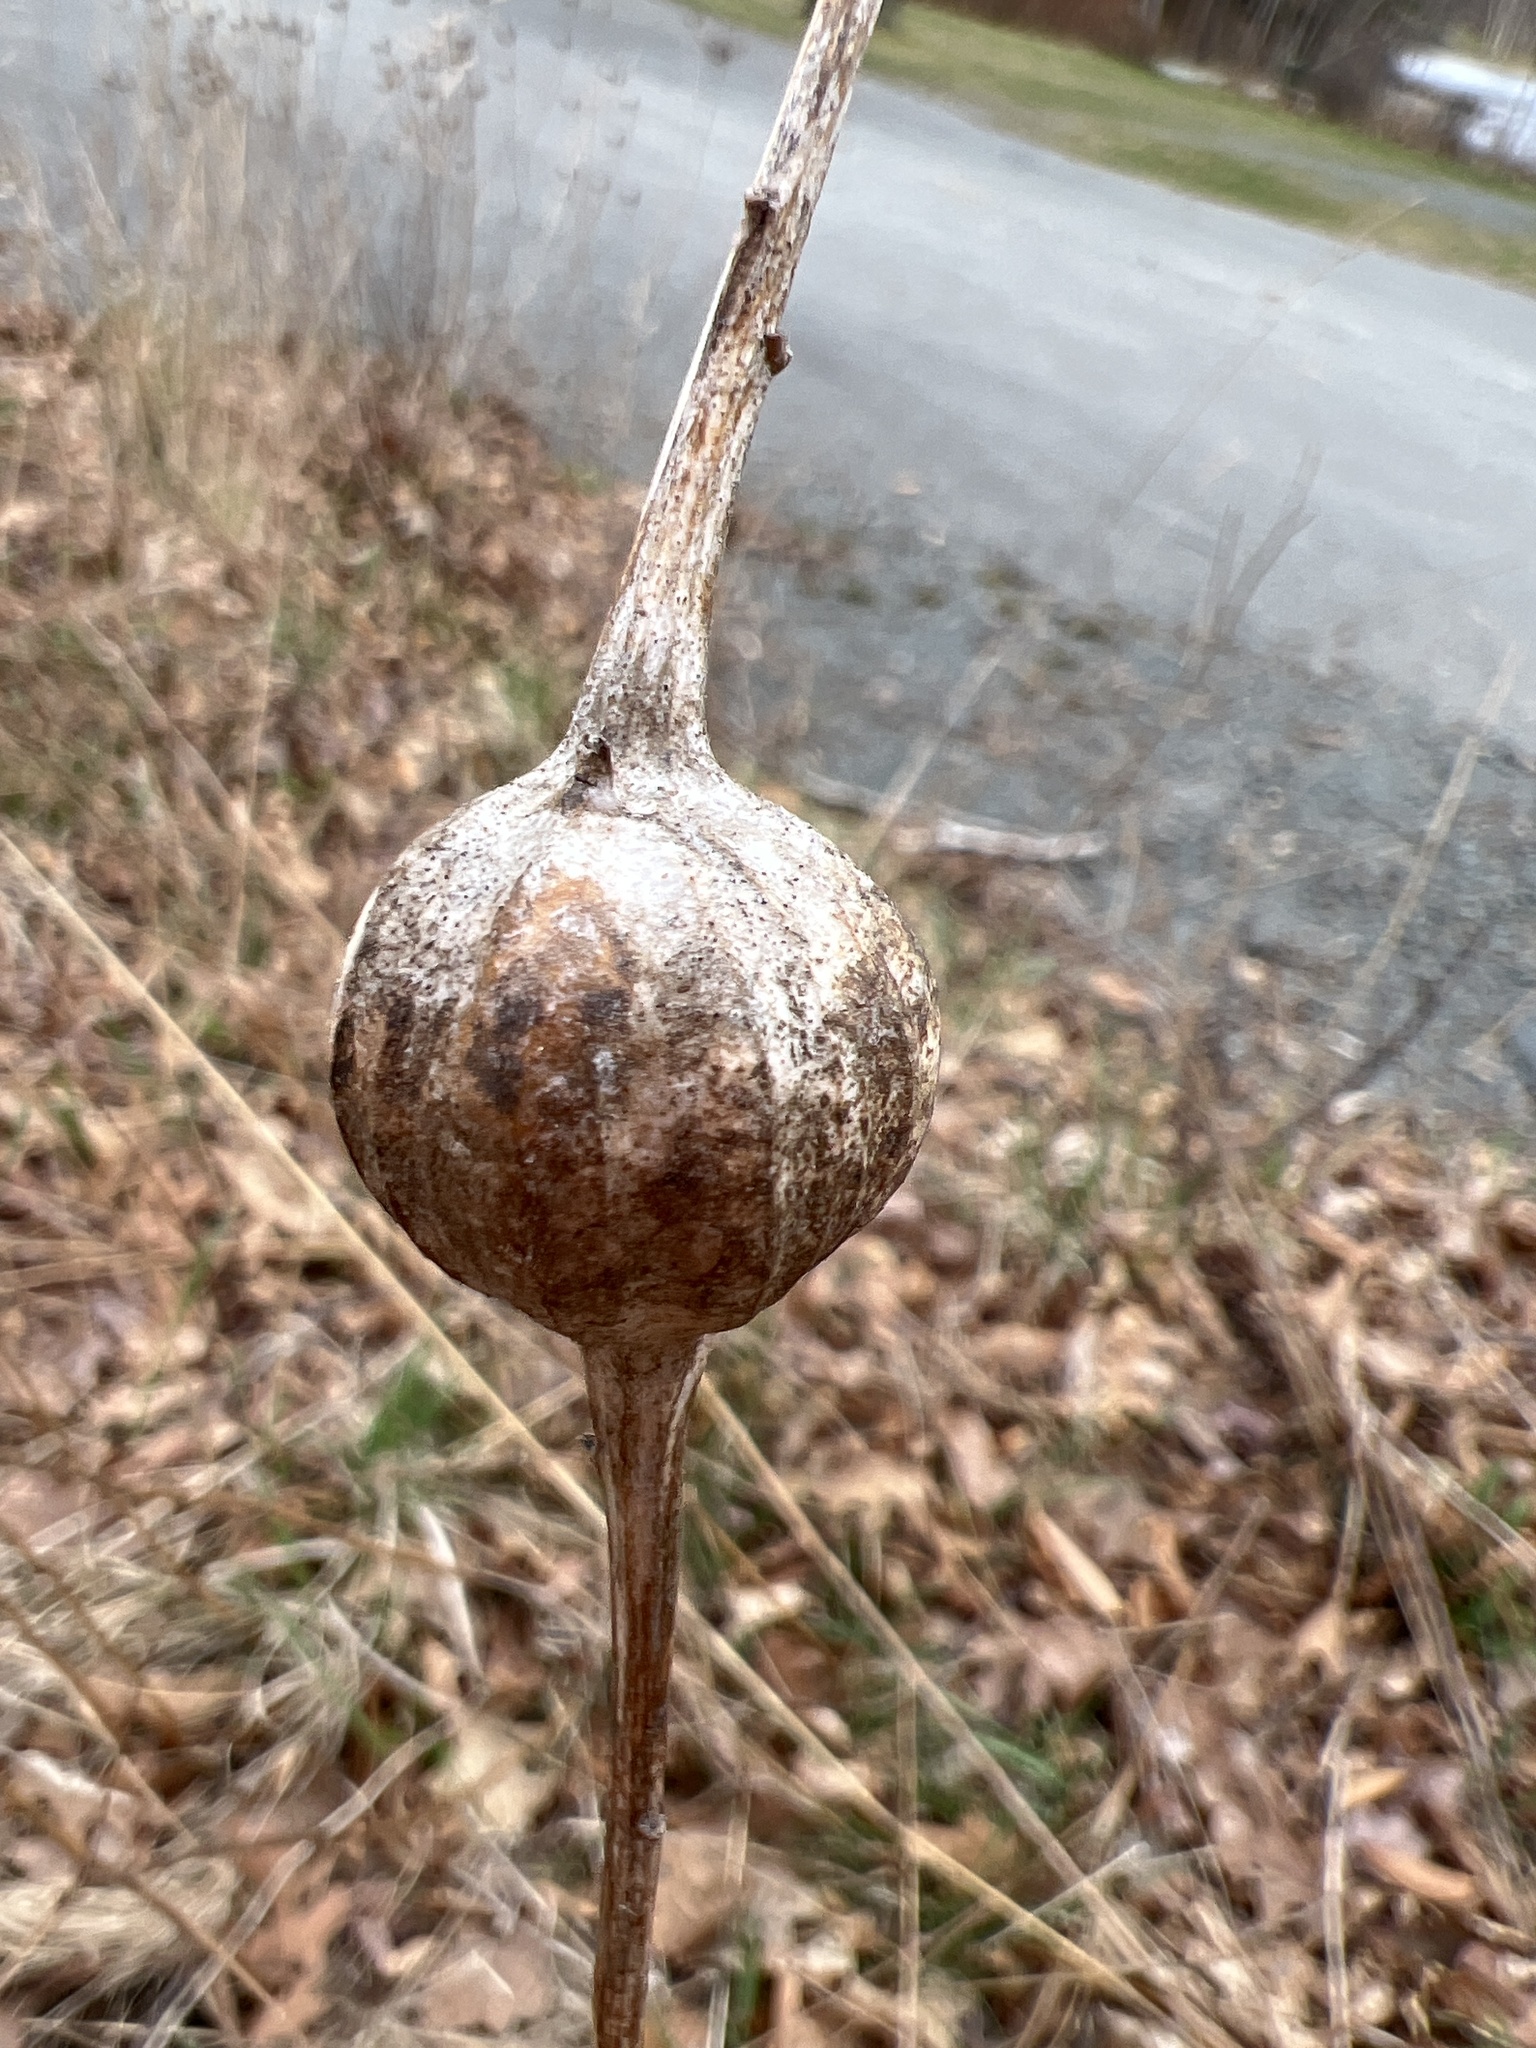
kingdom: Animalia
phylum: Arthropoda
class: Insecta
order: Diptera
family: Tephritidae
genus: Eurosta
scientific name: Eurosta solidaginis
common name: Goldenrod gall fly
